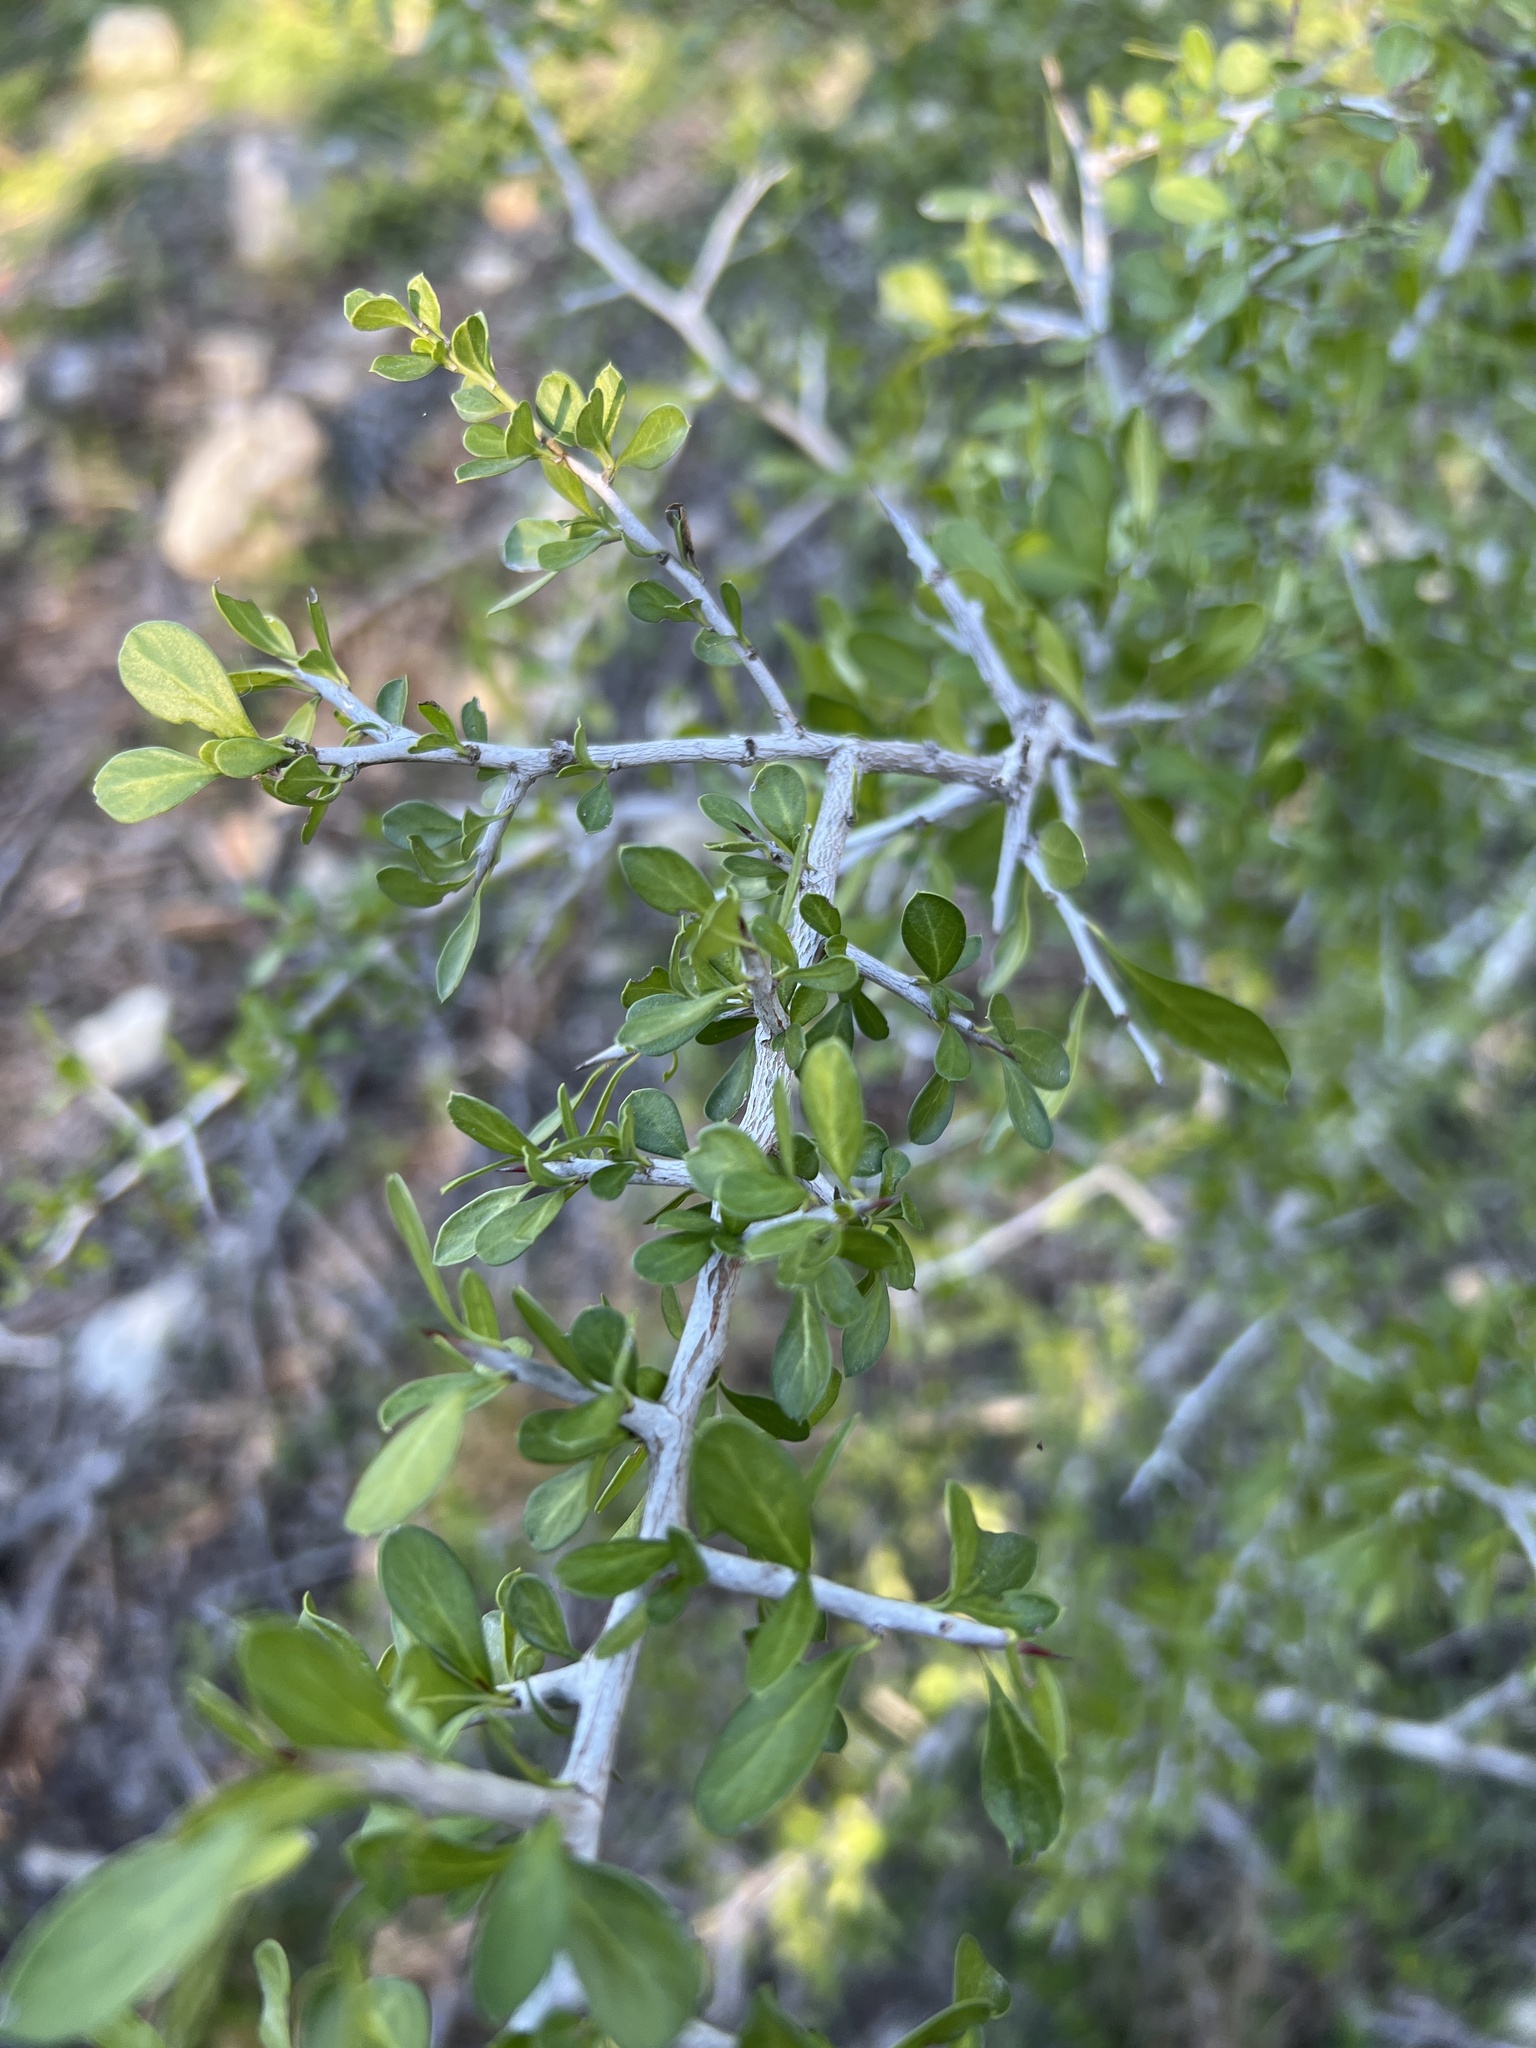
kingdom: Plantae
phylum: Tracheophyta
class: Magnoliopsida
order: Rosales
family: Rhamnaceae
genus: Condalia
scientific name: Condalia hookeri
